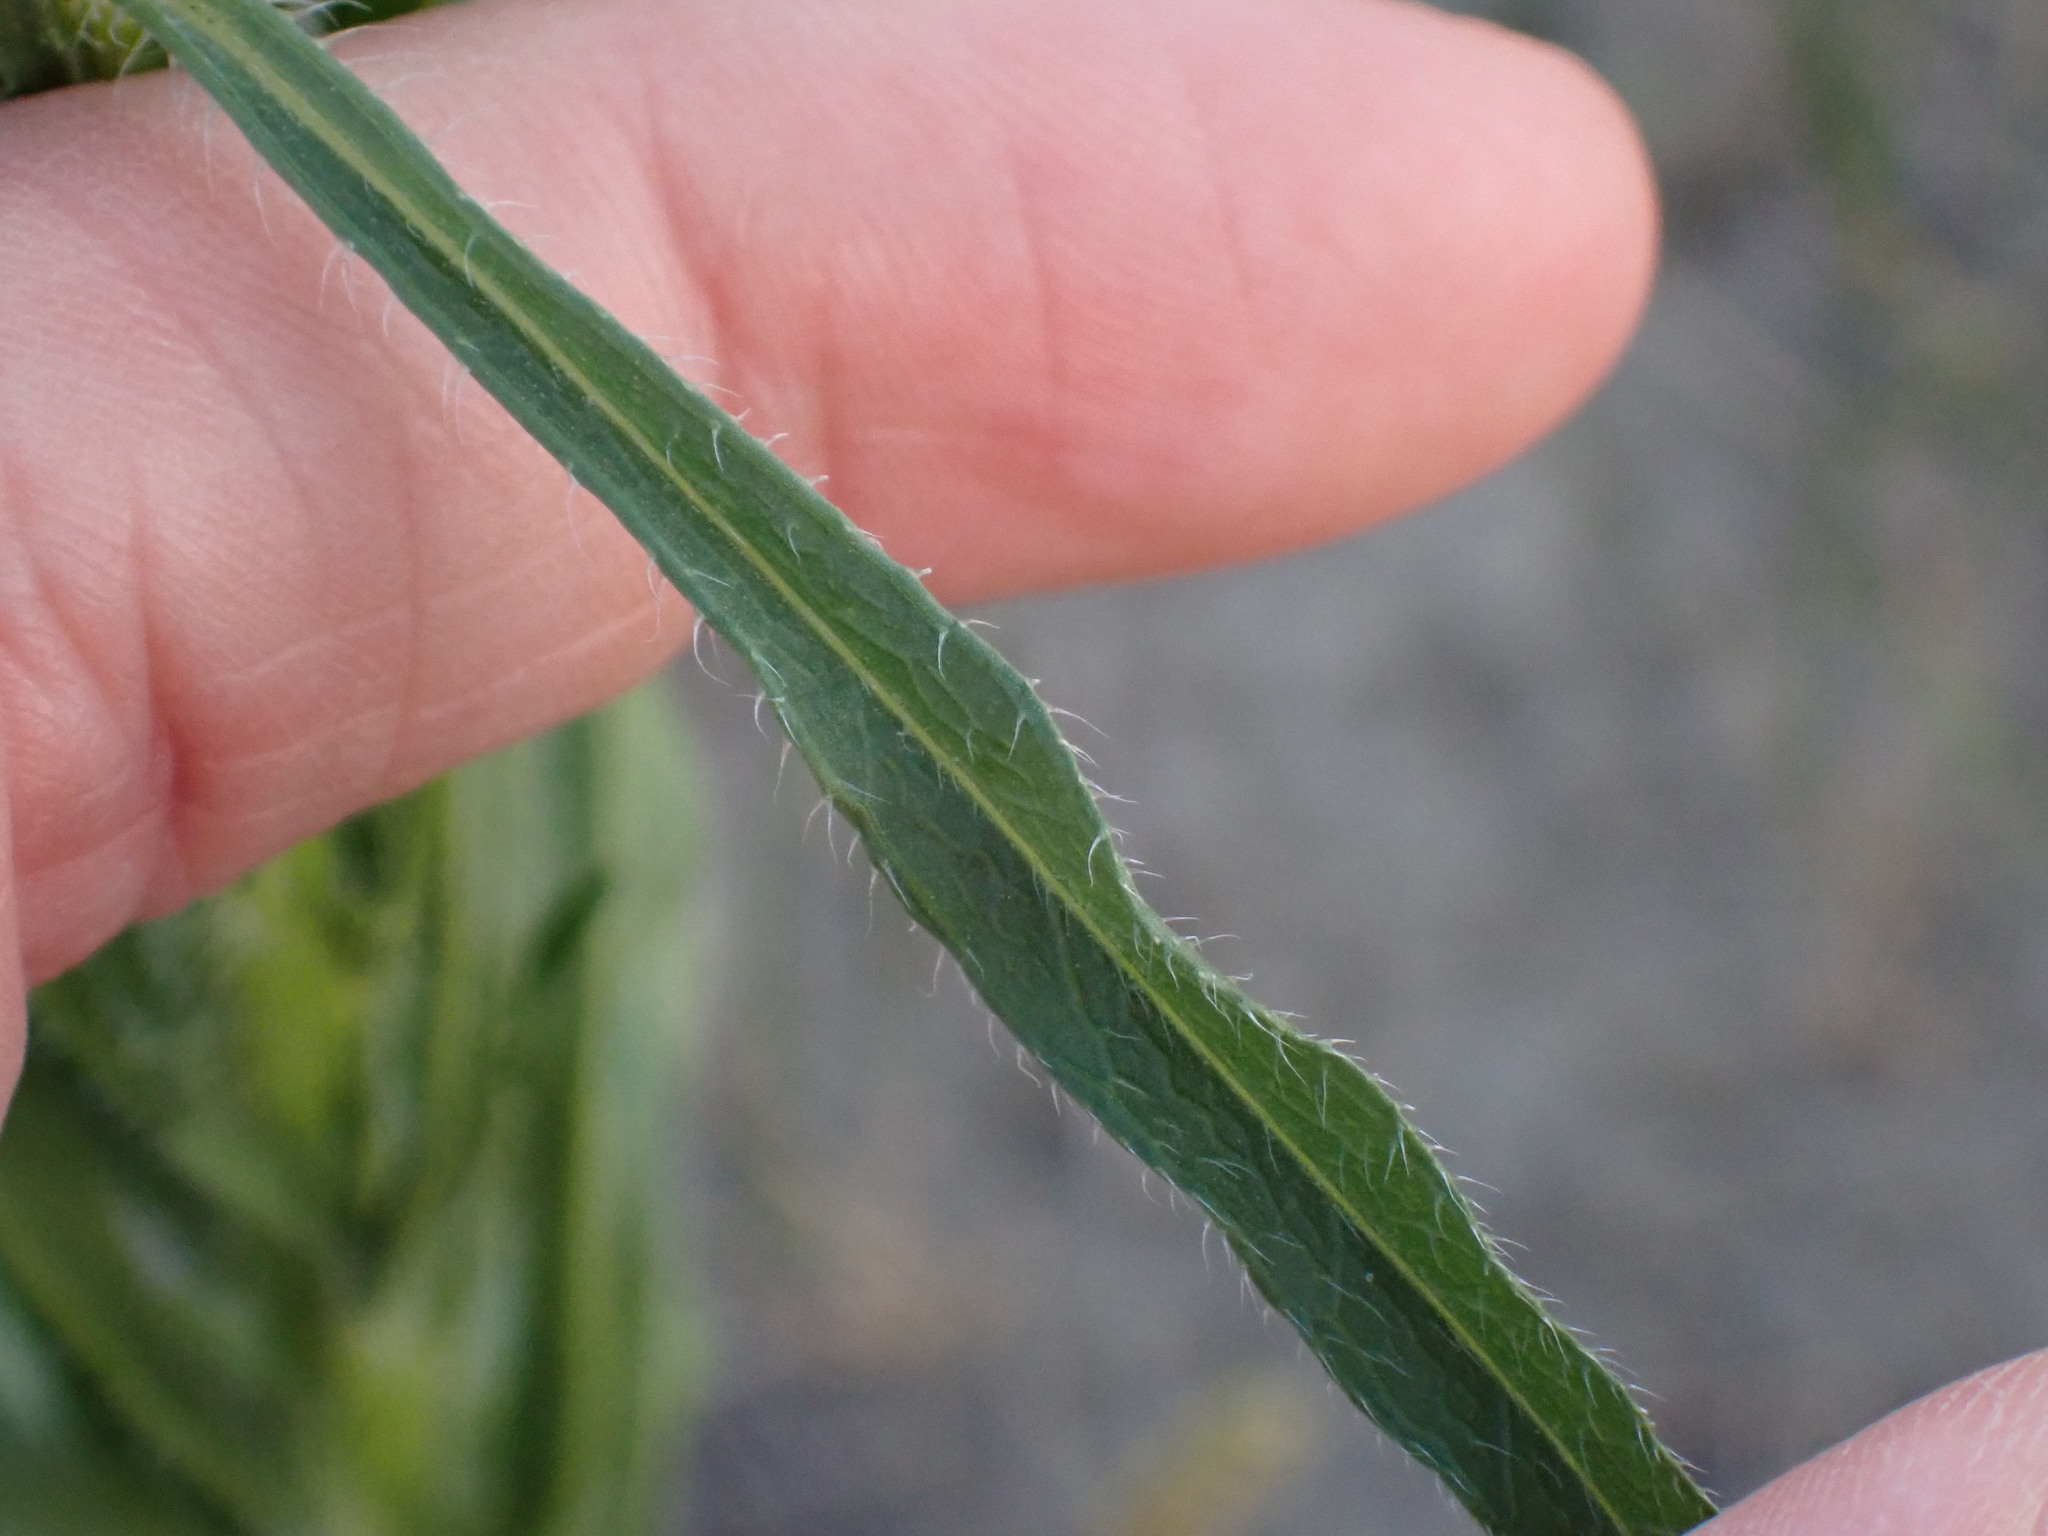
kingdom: Plantae
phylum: Tracheophyta
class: Magnoliopsida
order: Asterales
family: Asteraceae
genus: Erigeron
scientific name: Erigeron canadensis
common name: Canadian fleabane
